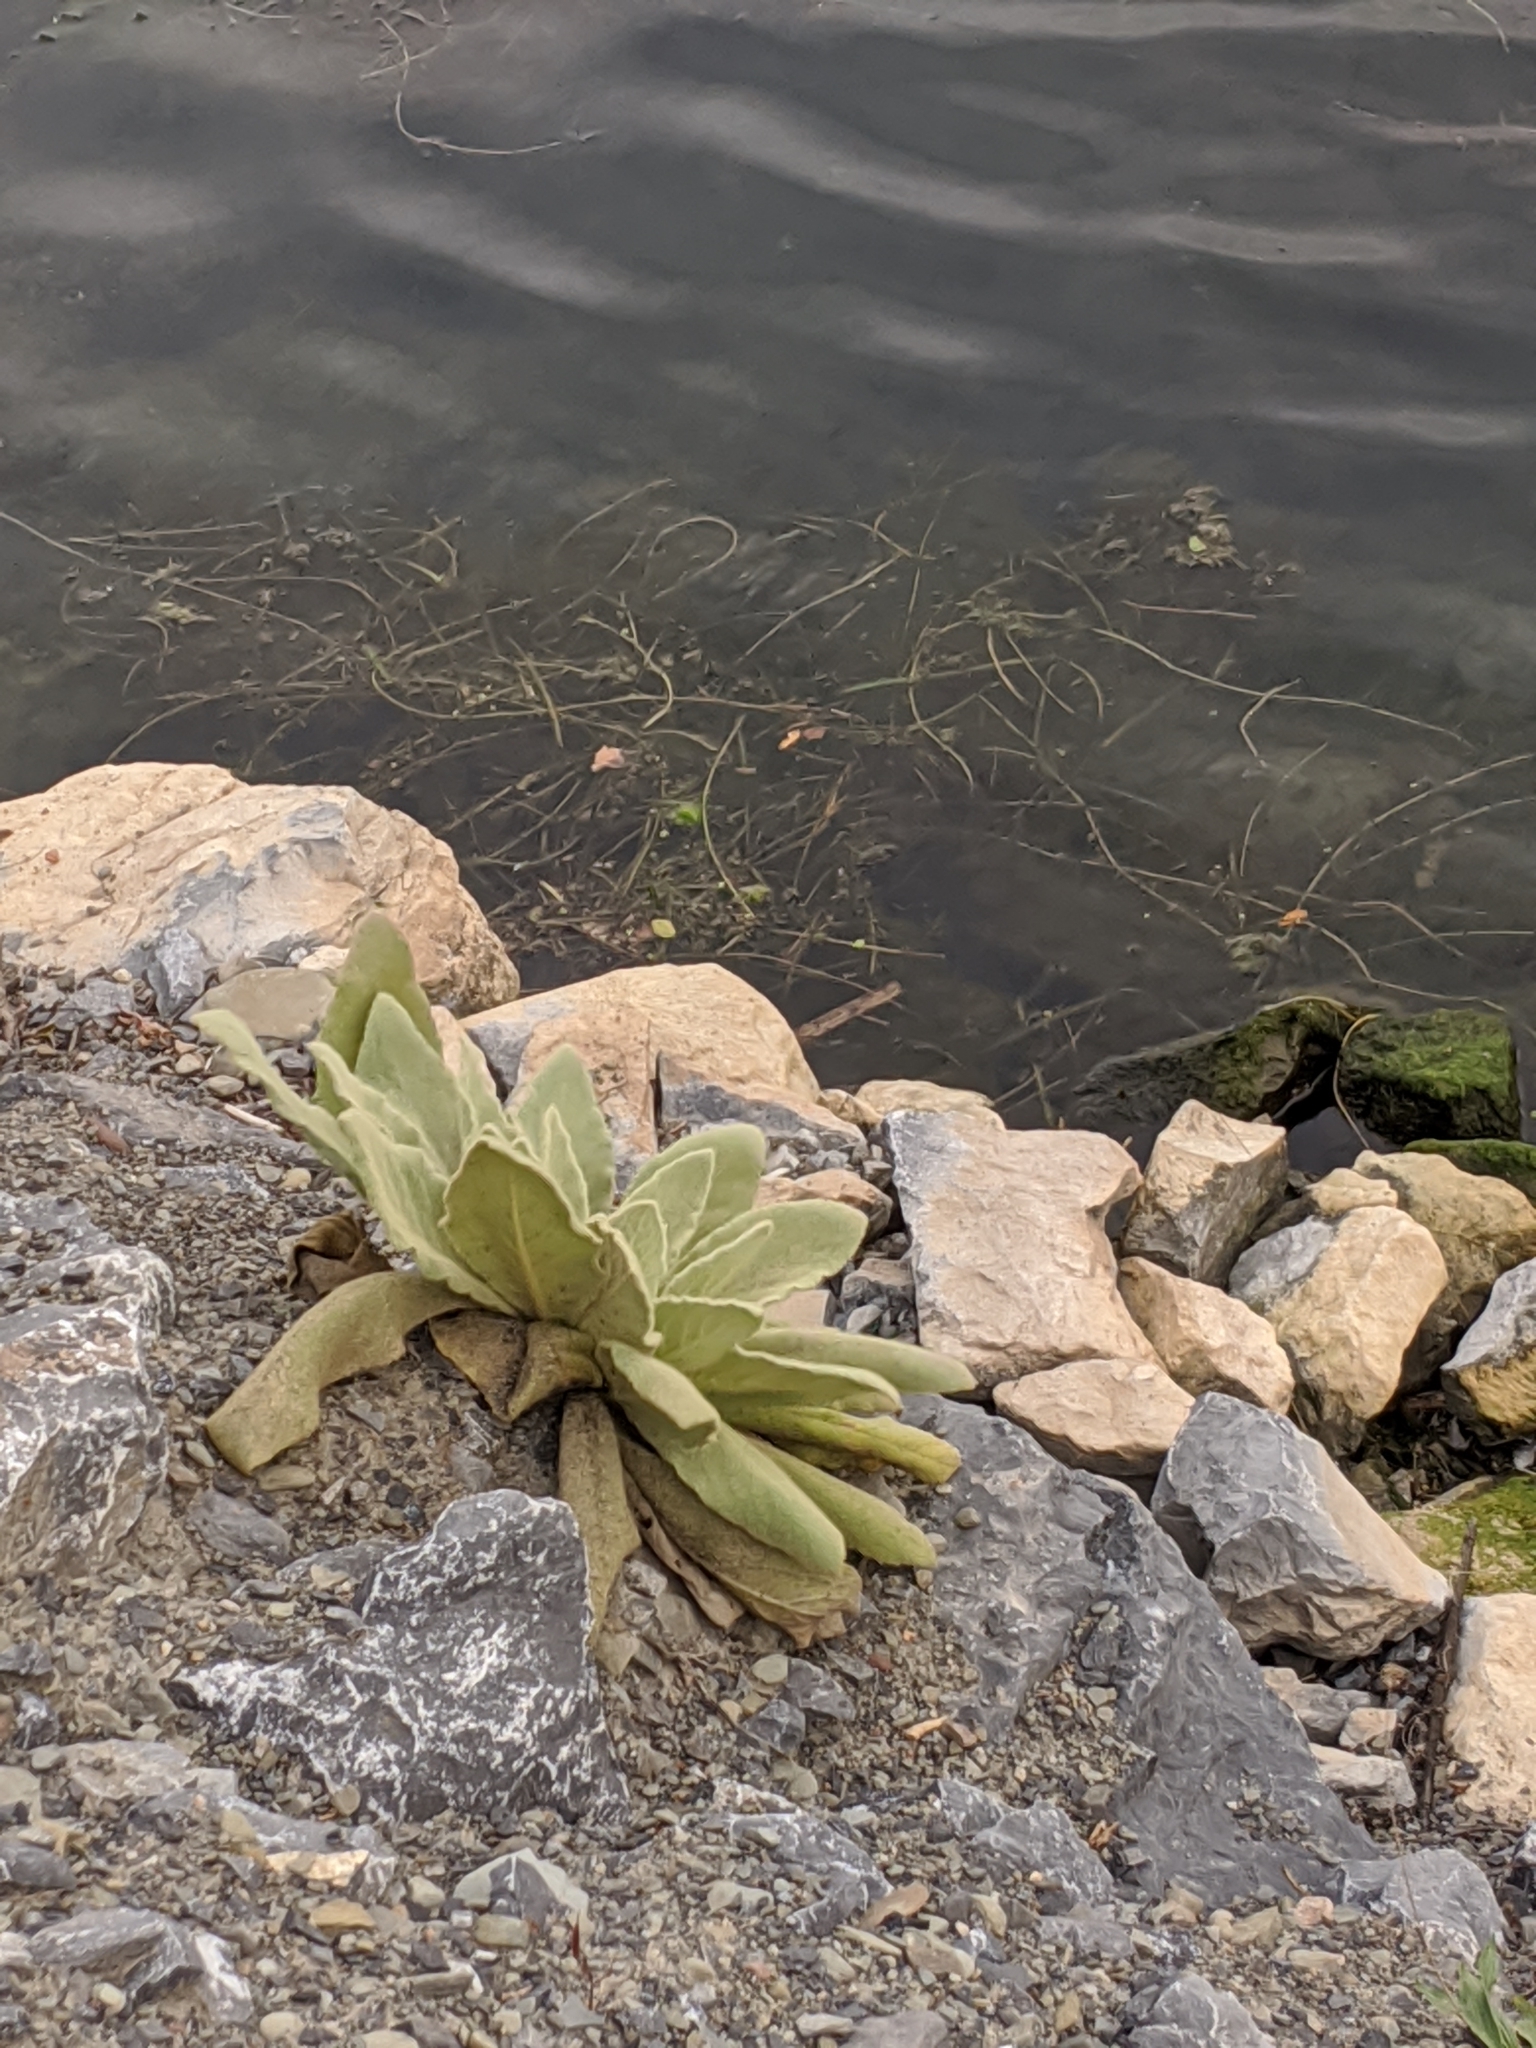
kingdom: Plantae
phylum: Tracheophyta
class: Magnoliopsida
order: Lamiales
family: Scrophulariaceae
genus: Verbascum
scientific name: Verbascum thapsus
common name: Common mullein
